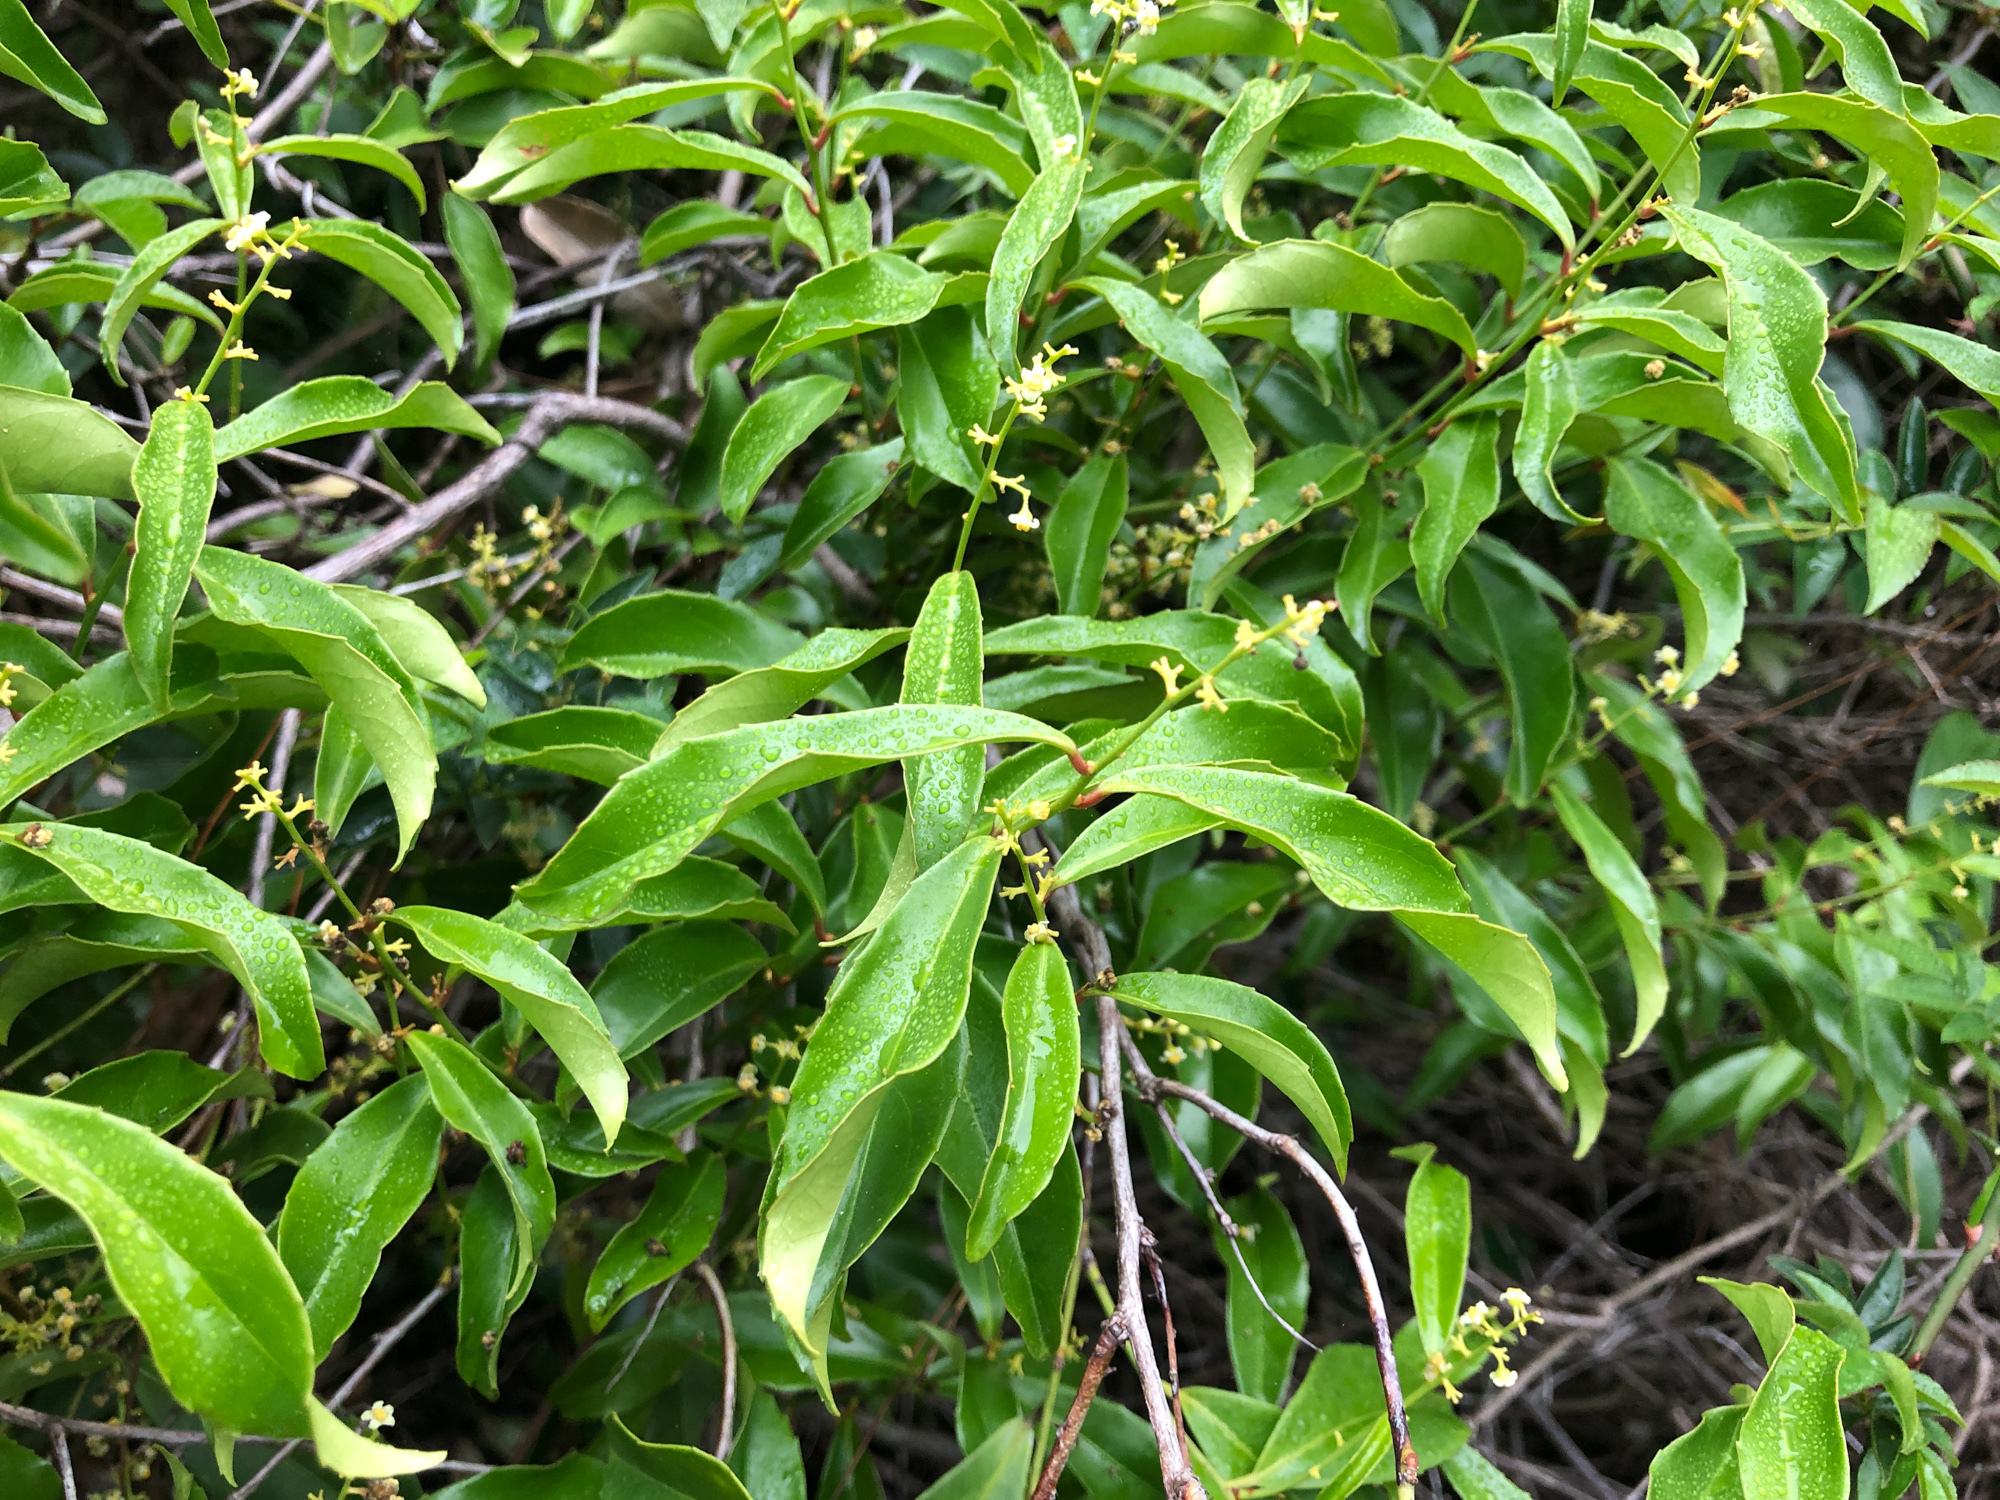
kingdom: Plantae
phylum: Tracheophyta
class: Magnoliopsida
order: Celastrales
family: Celastraceae
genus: Celastrus
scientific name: Celastrus hindsii
